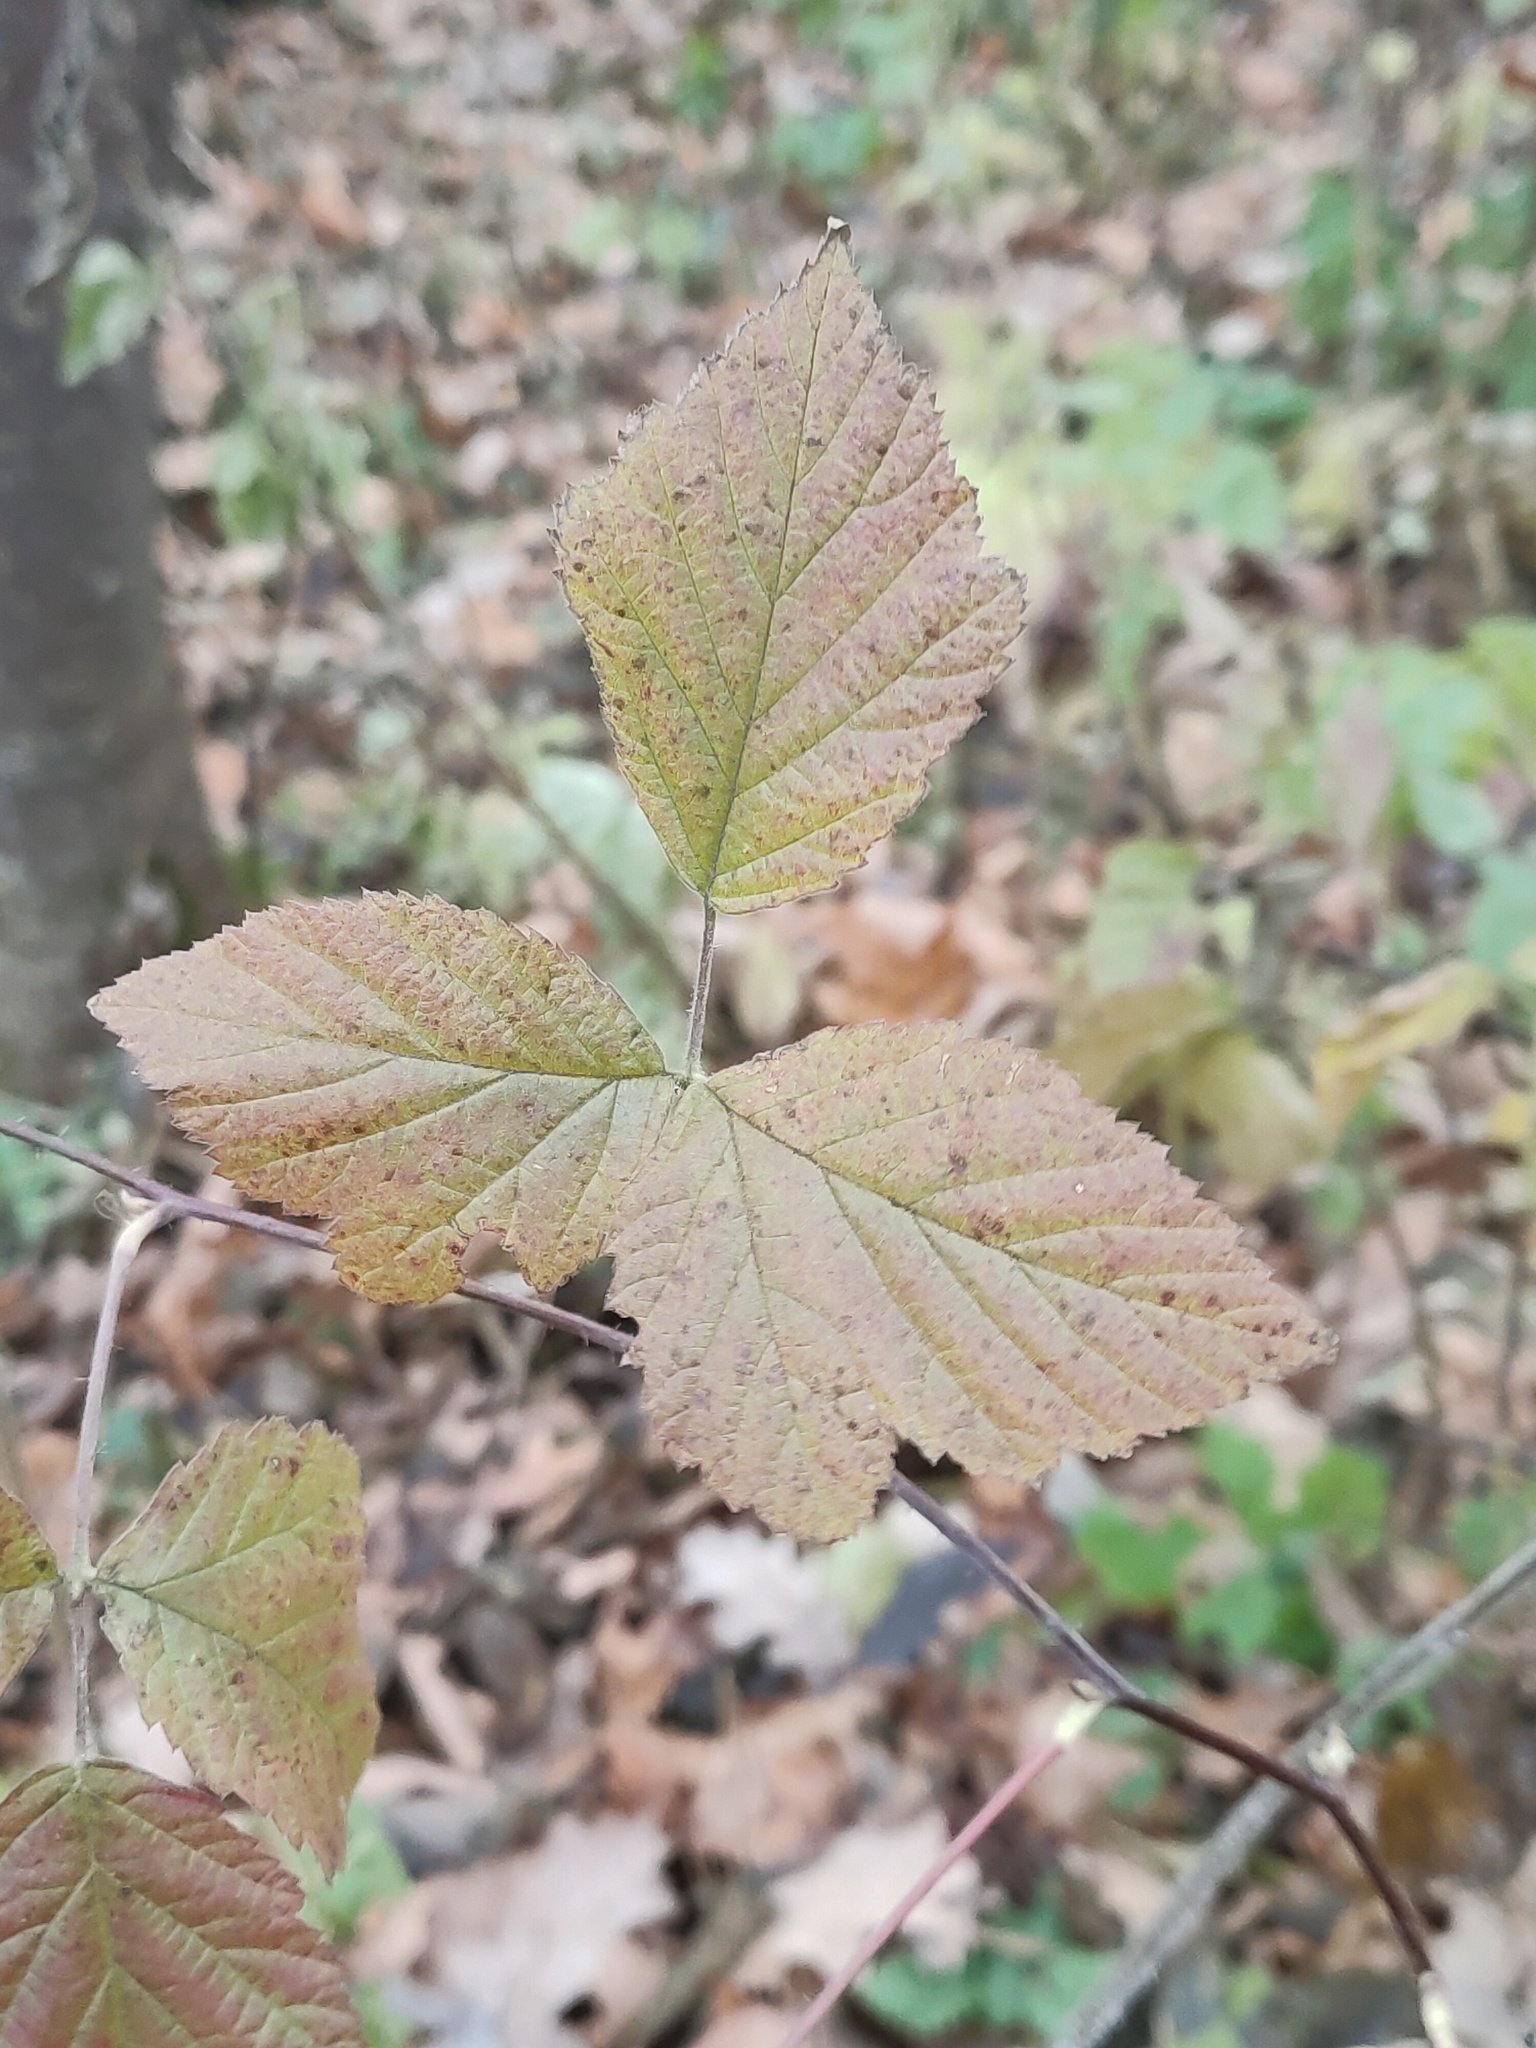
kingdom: Plantae
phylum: Tracheophyta
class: Magnoliopsida
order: Rosales
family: Rosaceae
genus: Rubus
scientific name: Rubus caesius
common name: Dewberry
